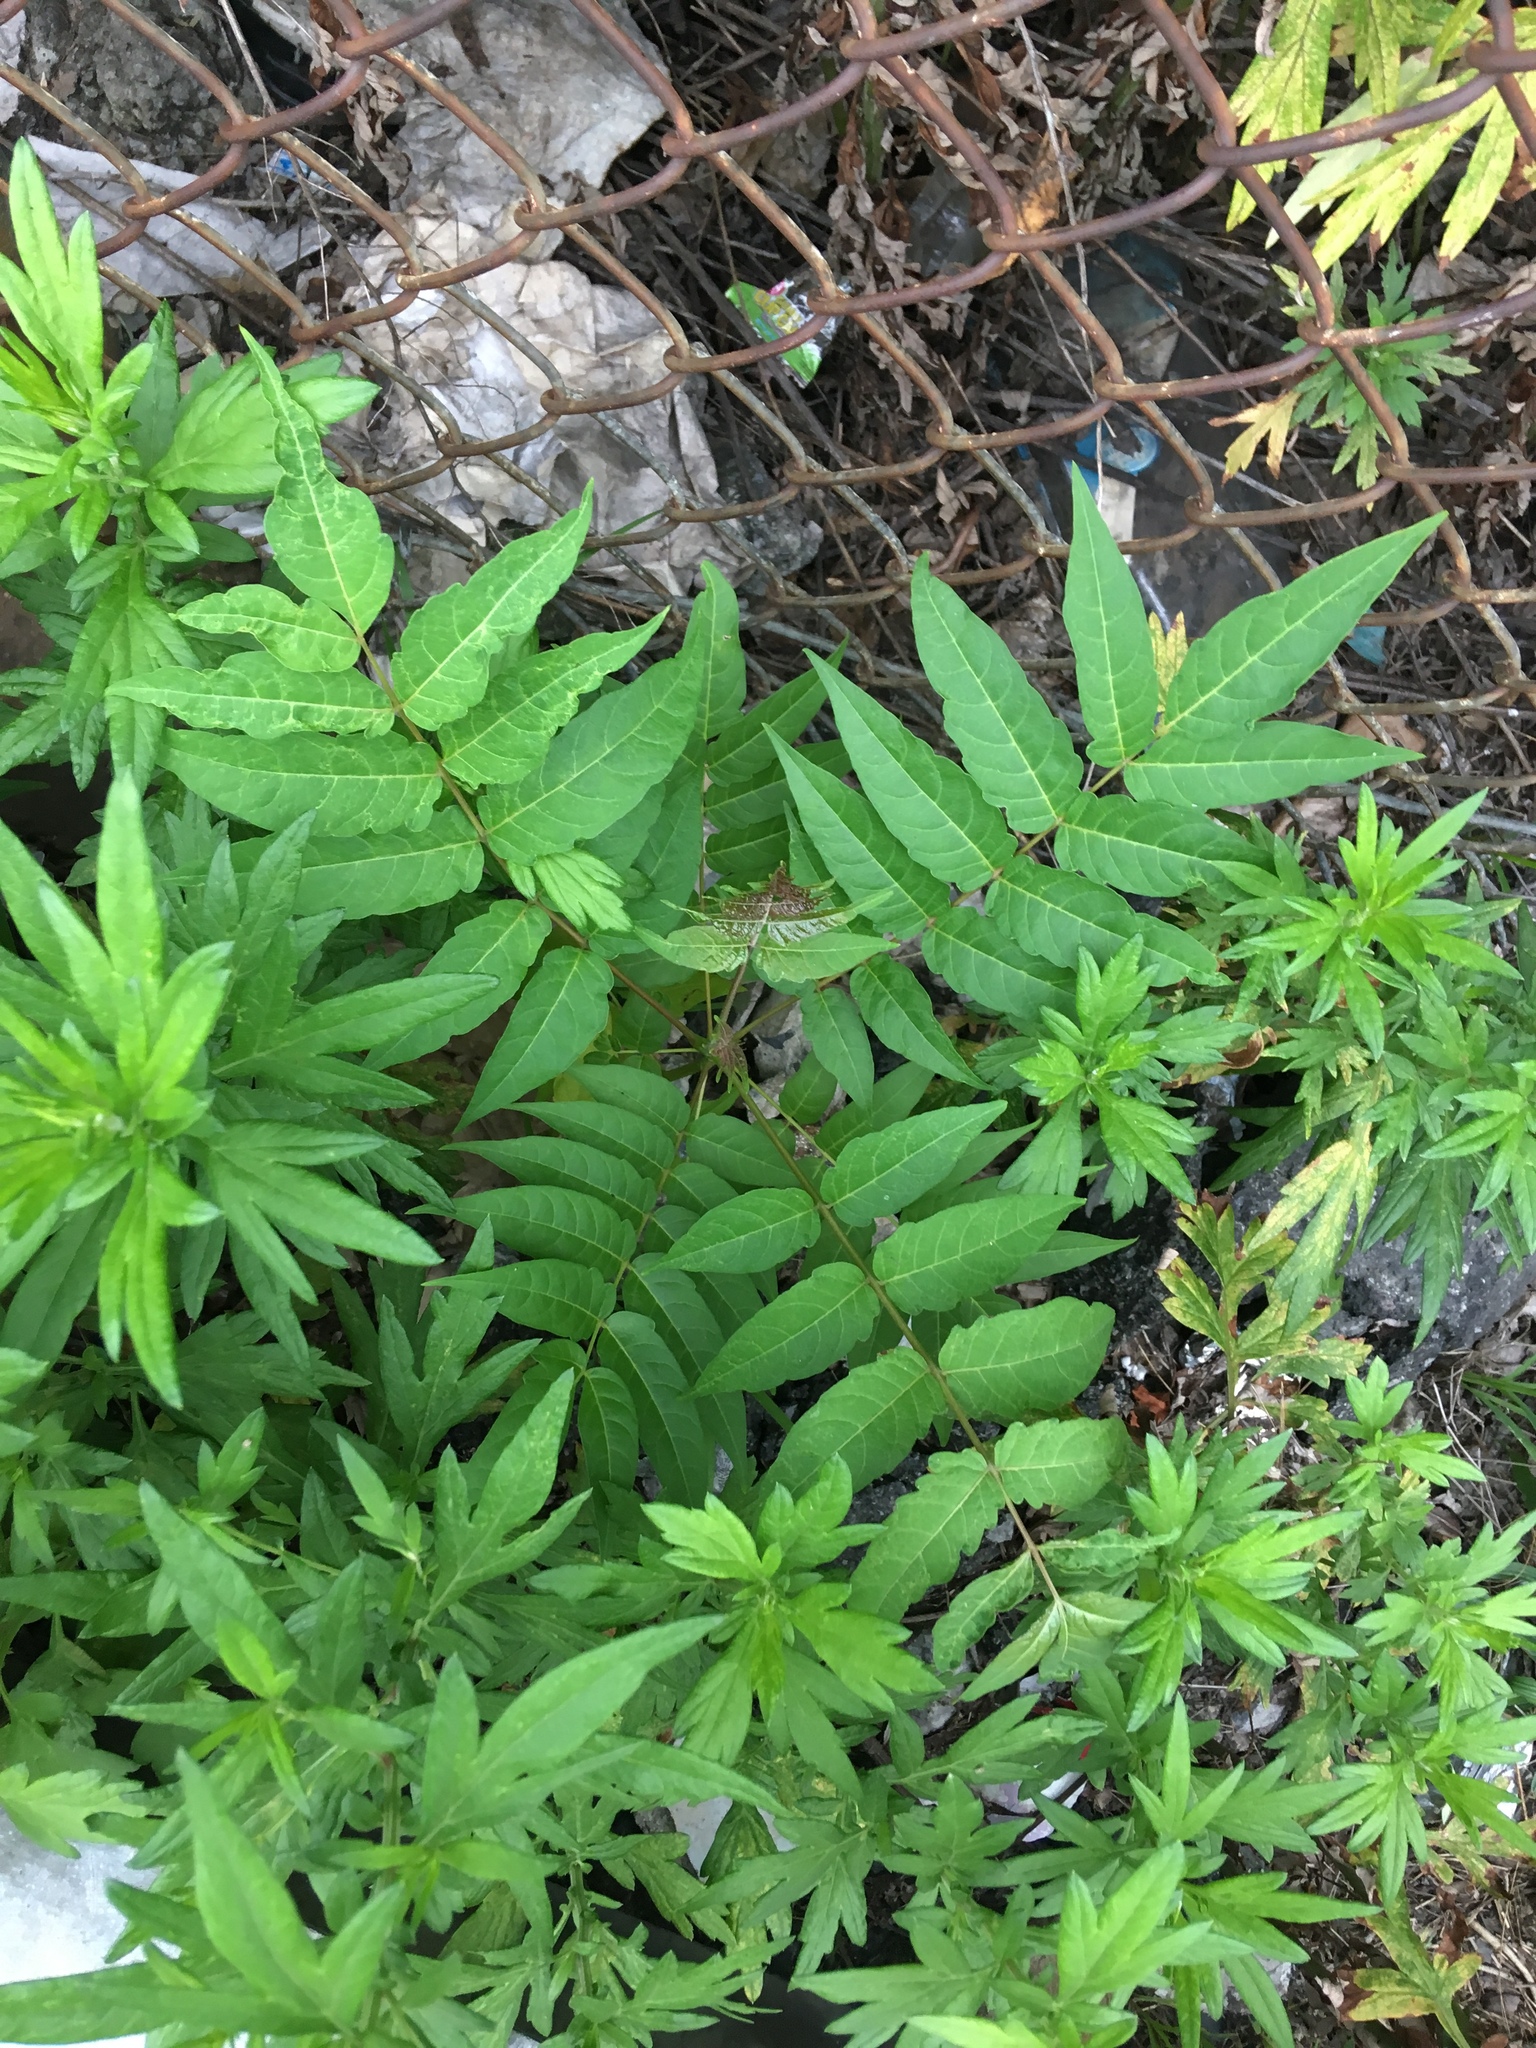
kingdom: Plantae
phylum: Tracheophyta
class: Magnoliopsida
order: Sapindales
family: Simaroubaceae
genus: Ailanthus
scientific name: Ailanthus altissima
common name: Tree-of-heaven
